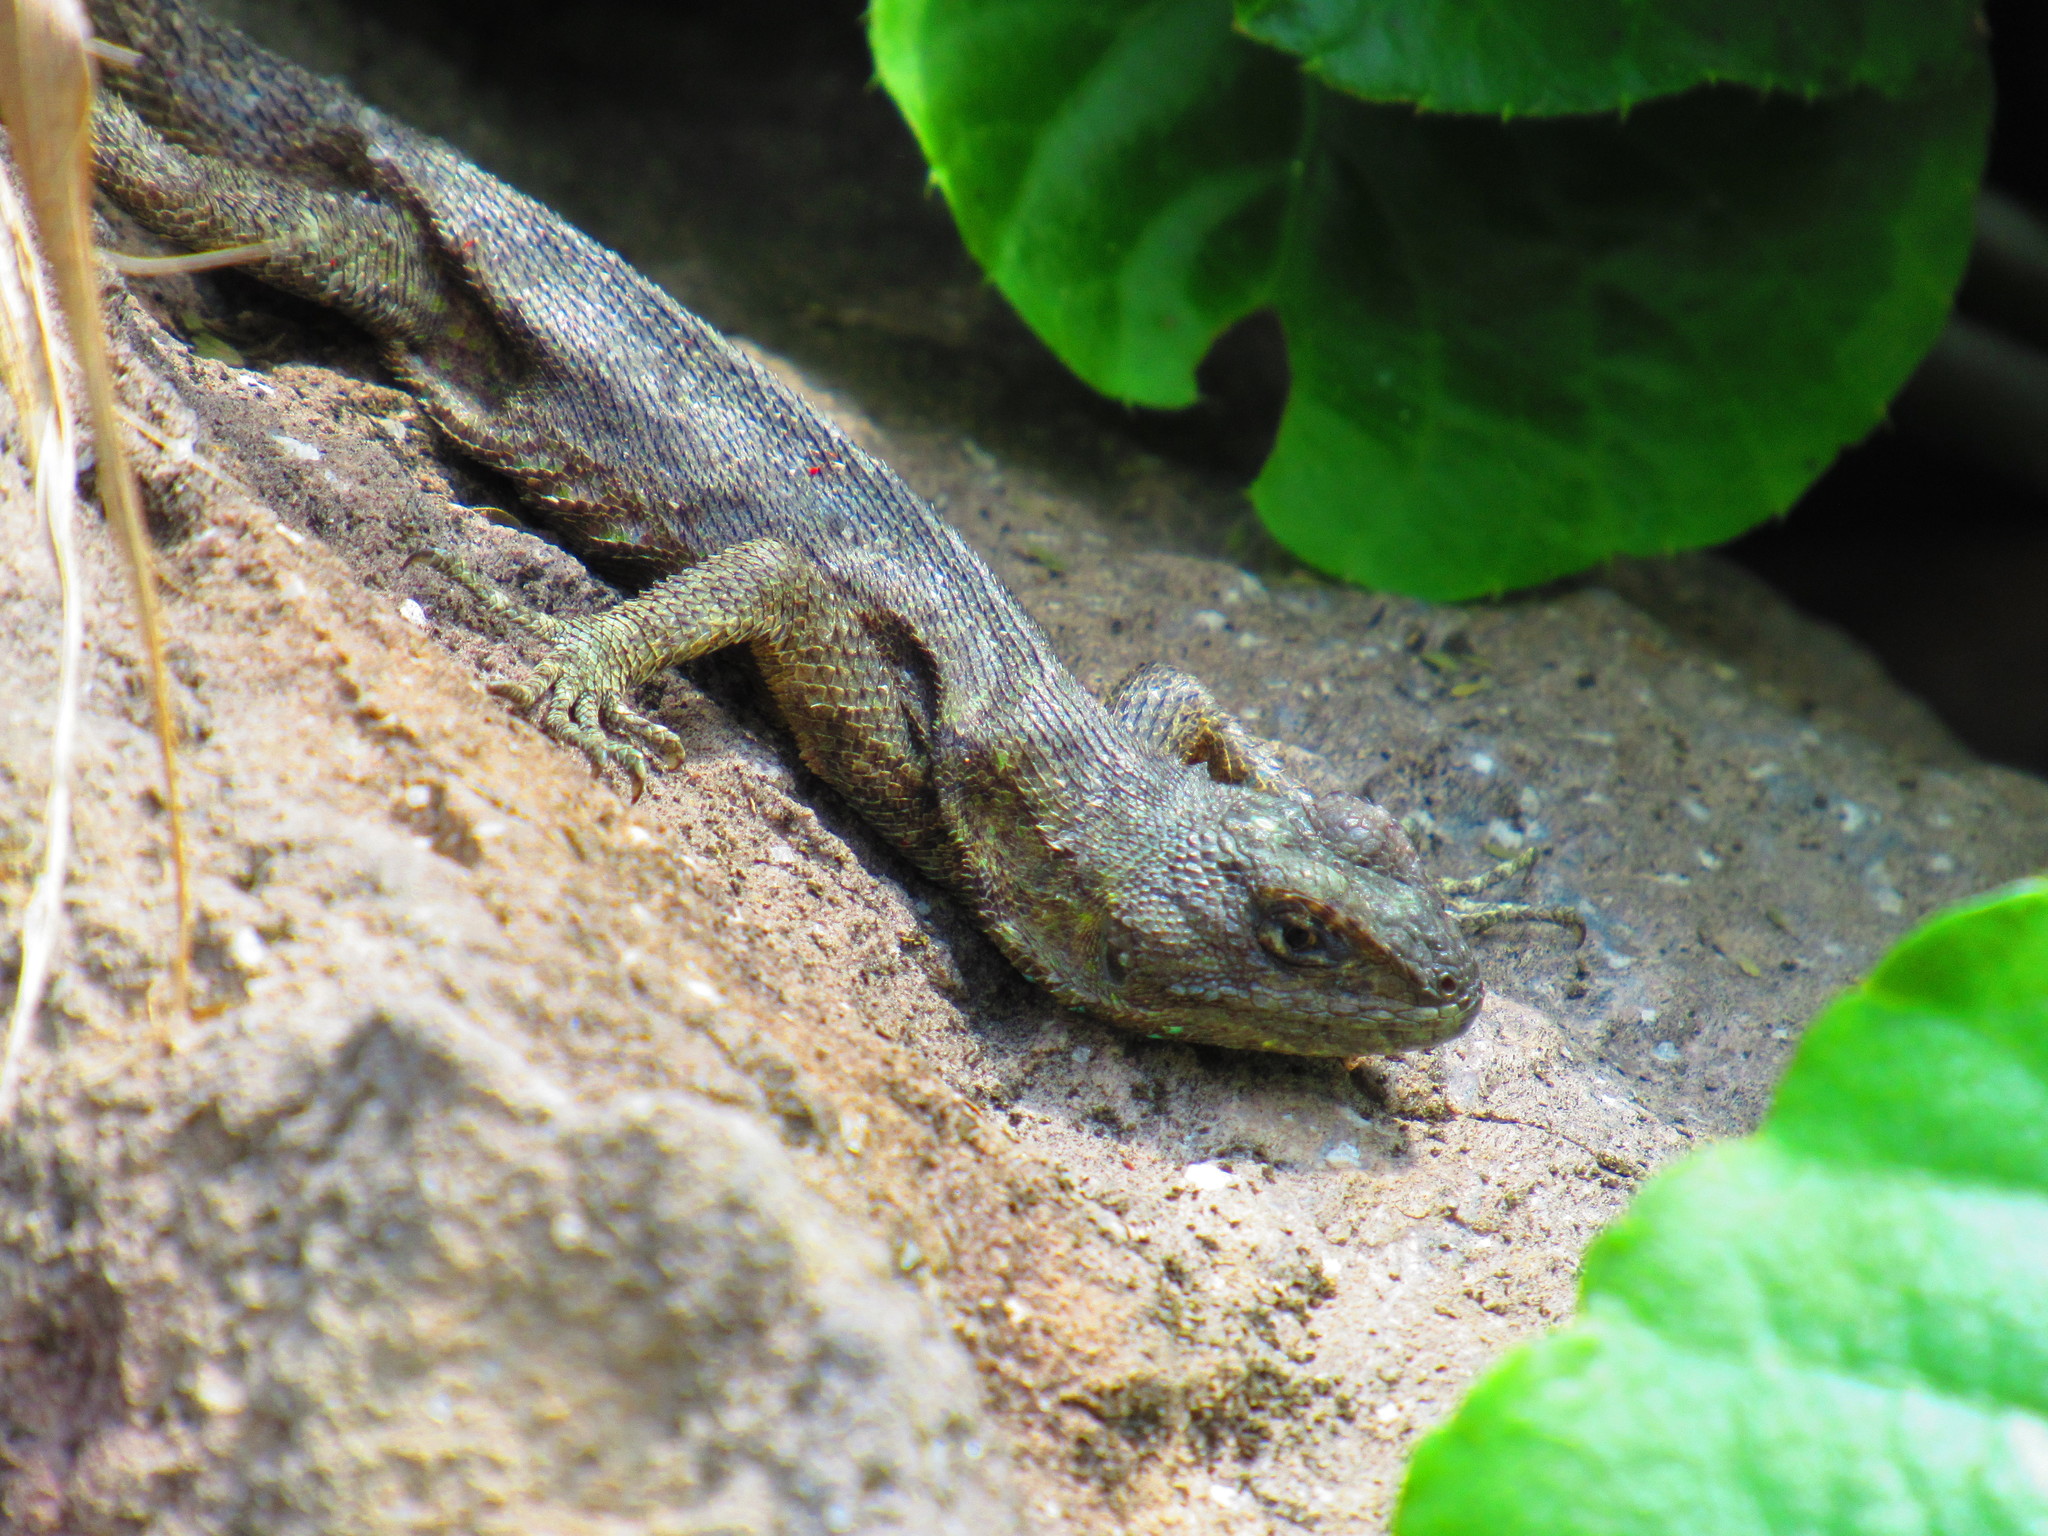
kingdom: Animalia
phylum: Chordata
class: Squamata
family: Phrynosomatidae
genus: Sceloporus
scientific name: Sceloporus grammicus
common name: Mesquite lizard
